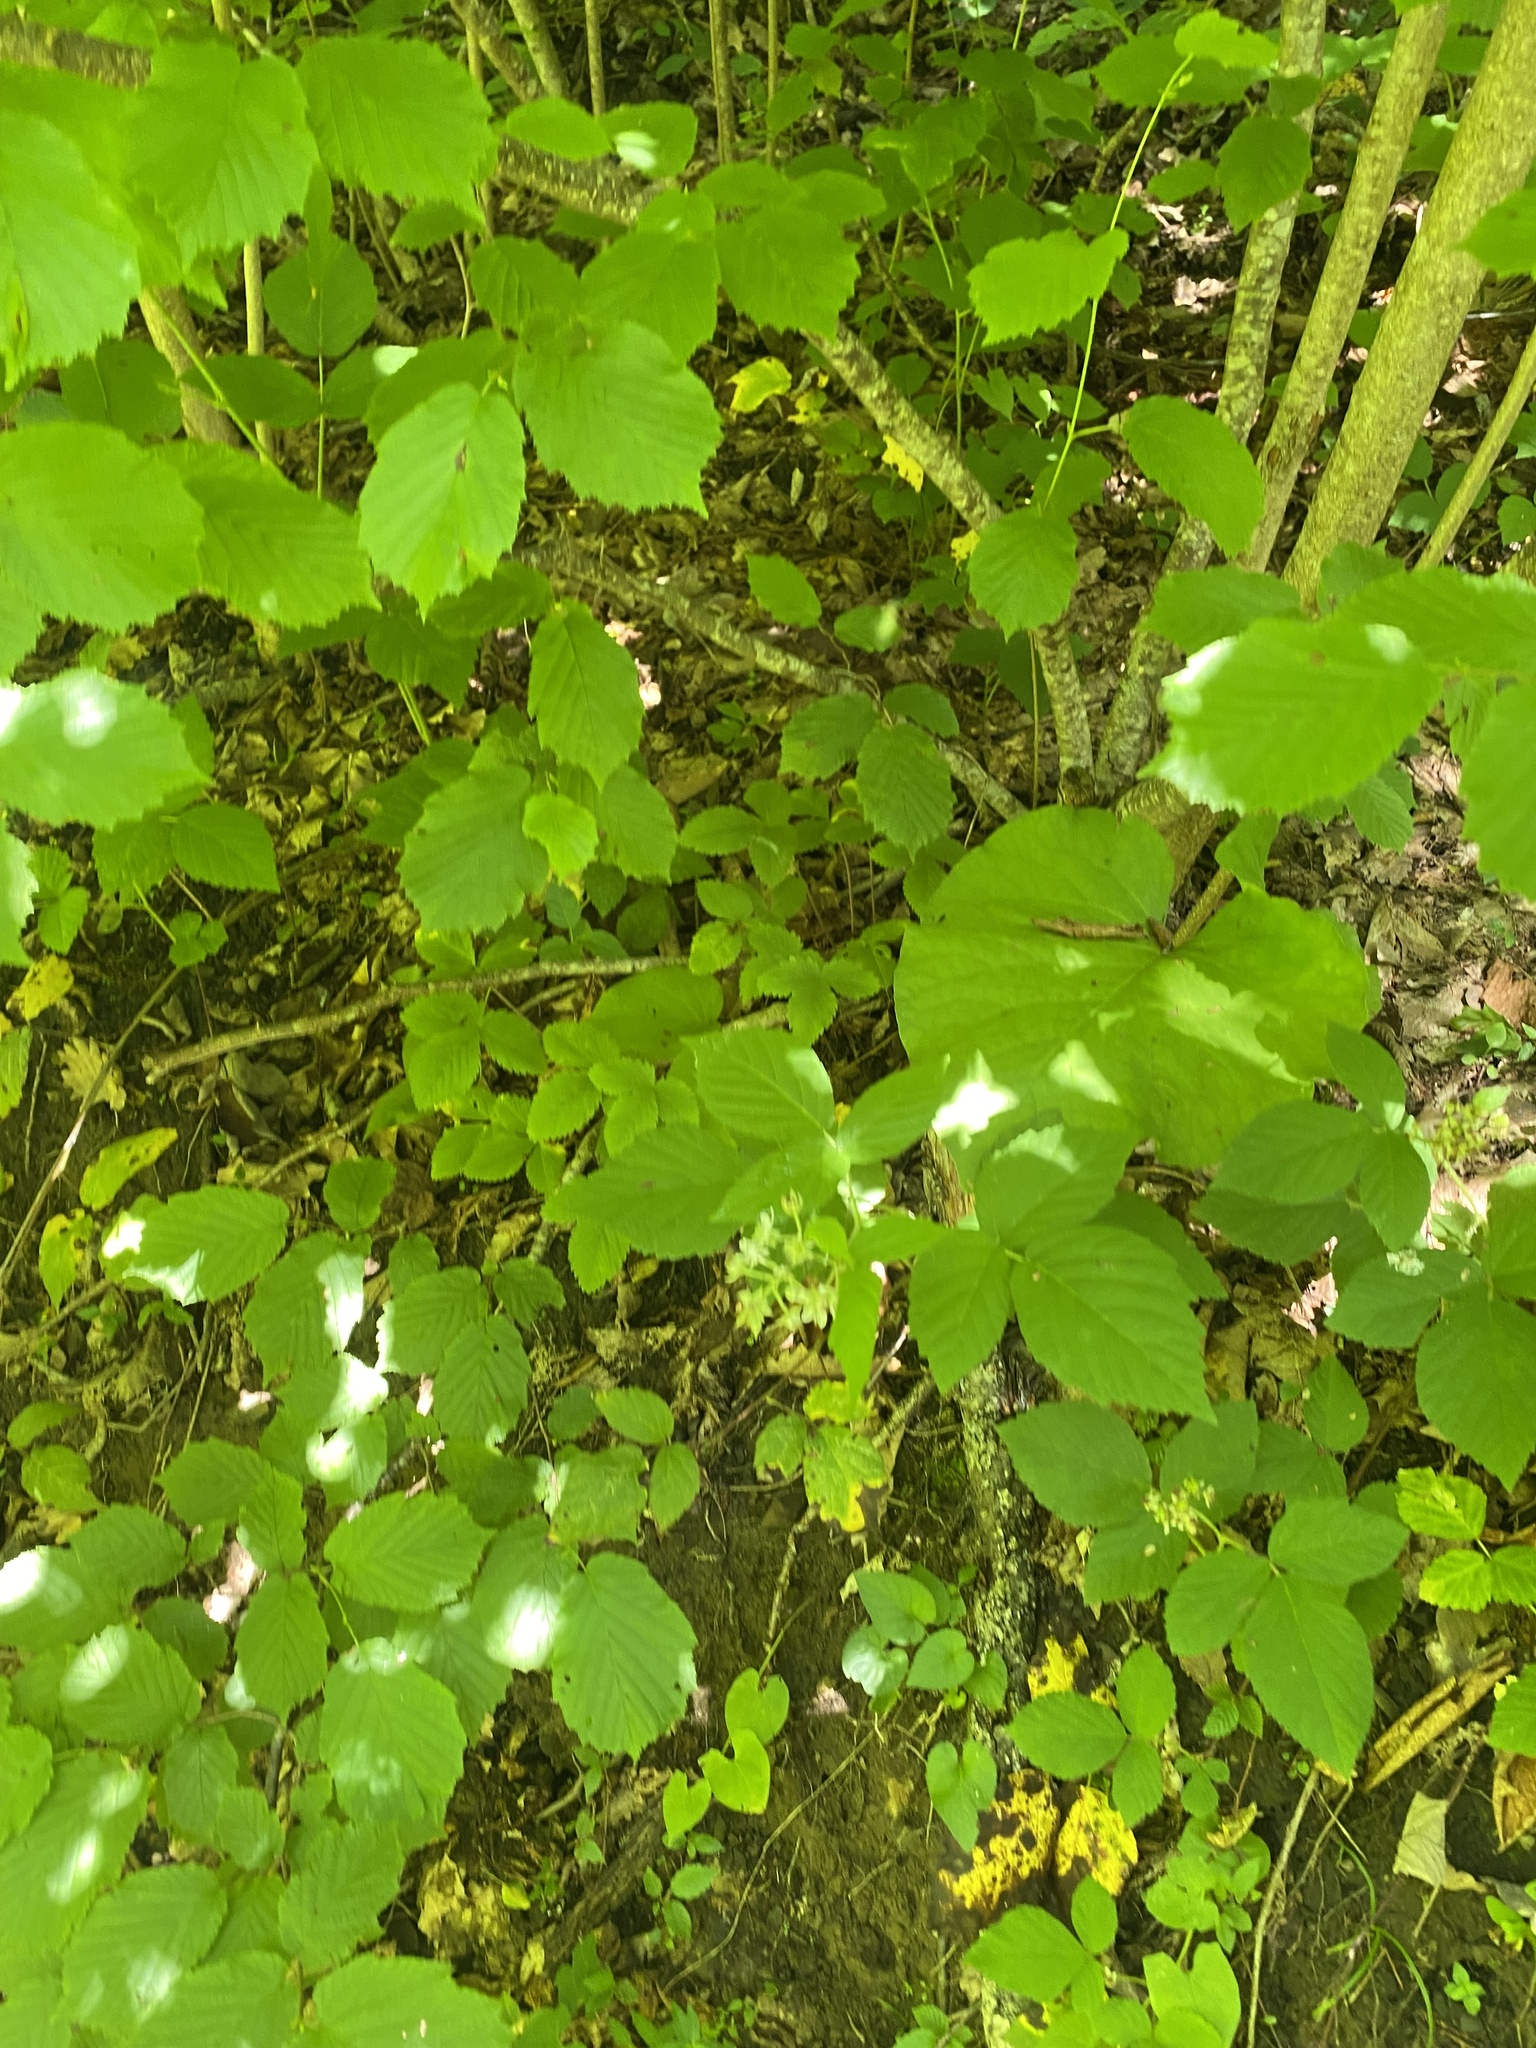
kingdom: Plantae
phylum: Tracheophyta
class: Magnoliopsida
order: Fagales
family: Betulaceae
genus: Corylus
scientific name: Corylus avellana
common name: European hazel
